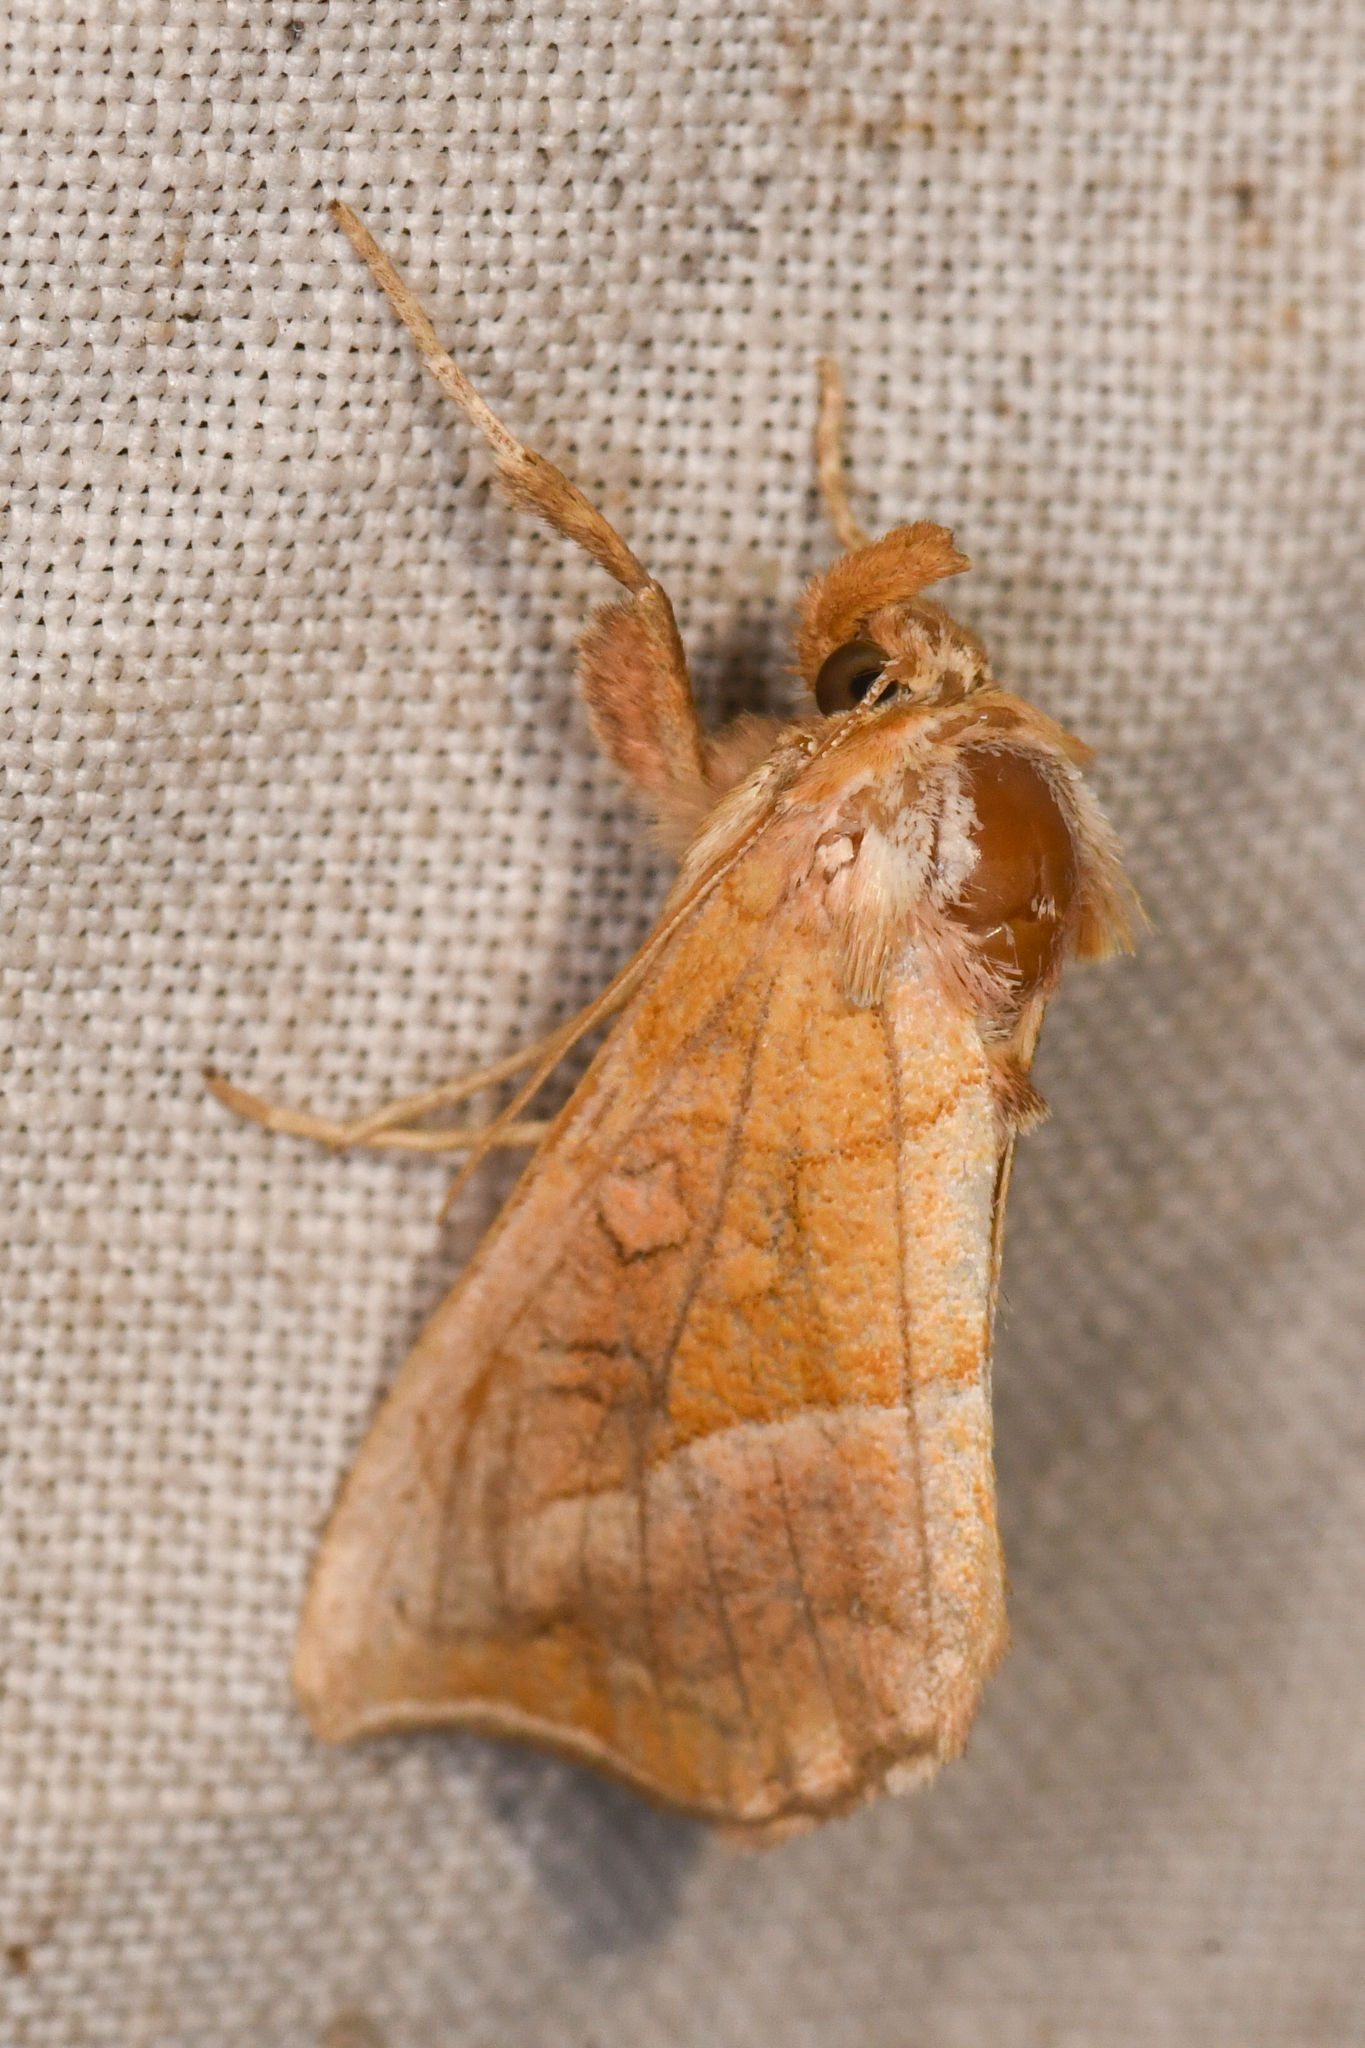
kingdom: Animalia
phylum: Arthropoda
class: Insecta
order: Lepidoptera
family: Noctuidae
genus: Pseudeva
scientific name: Pseudeva palligera
